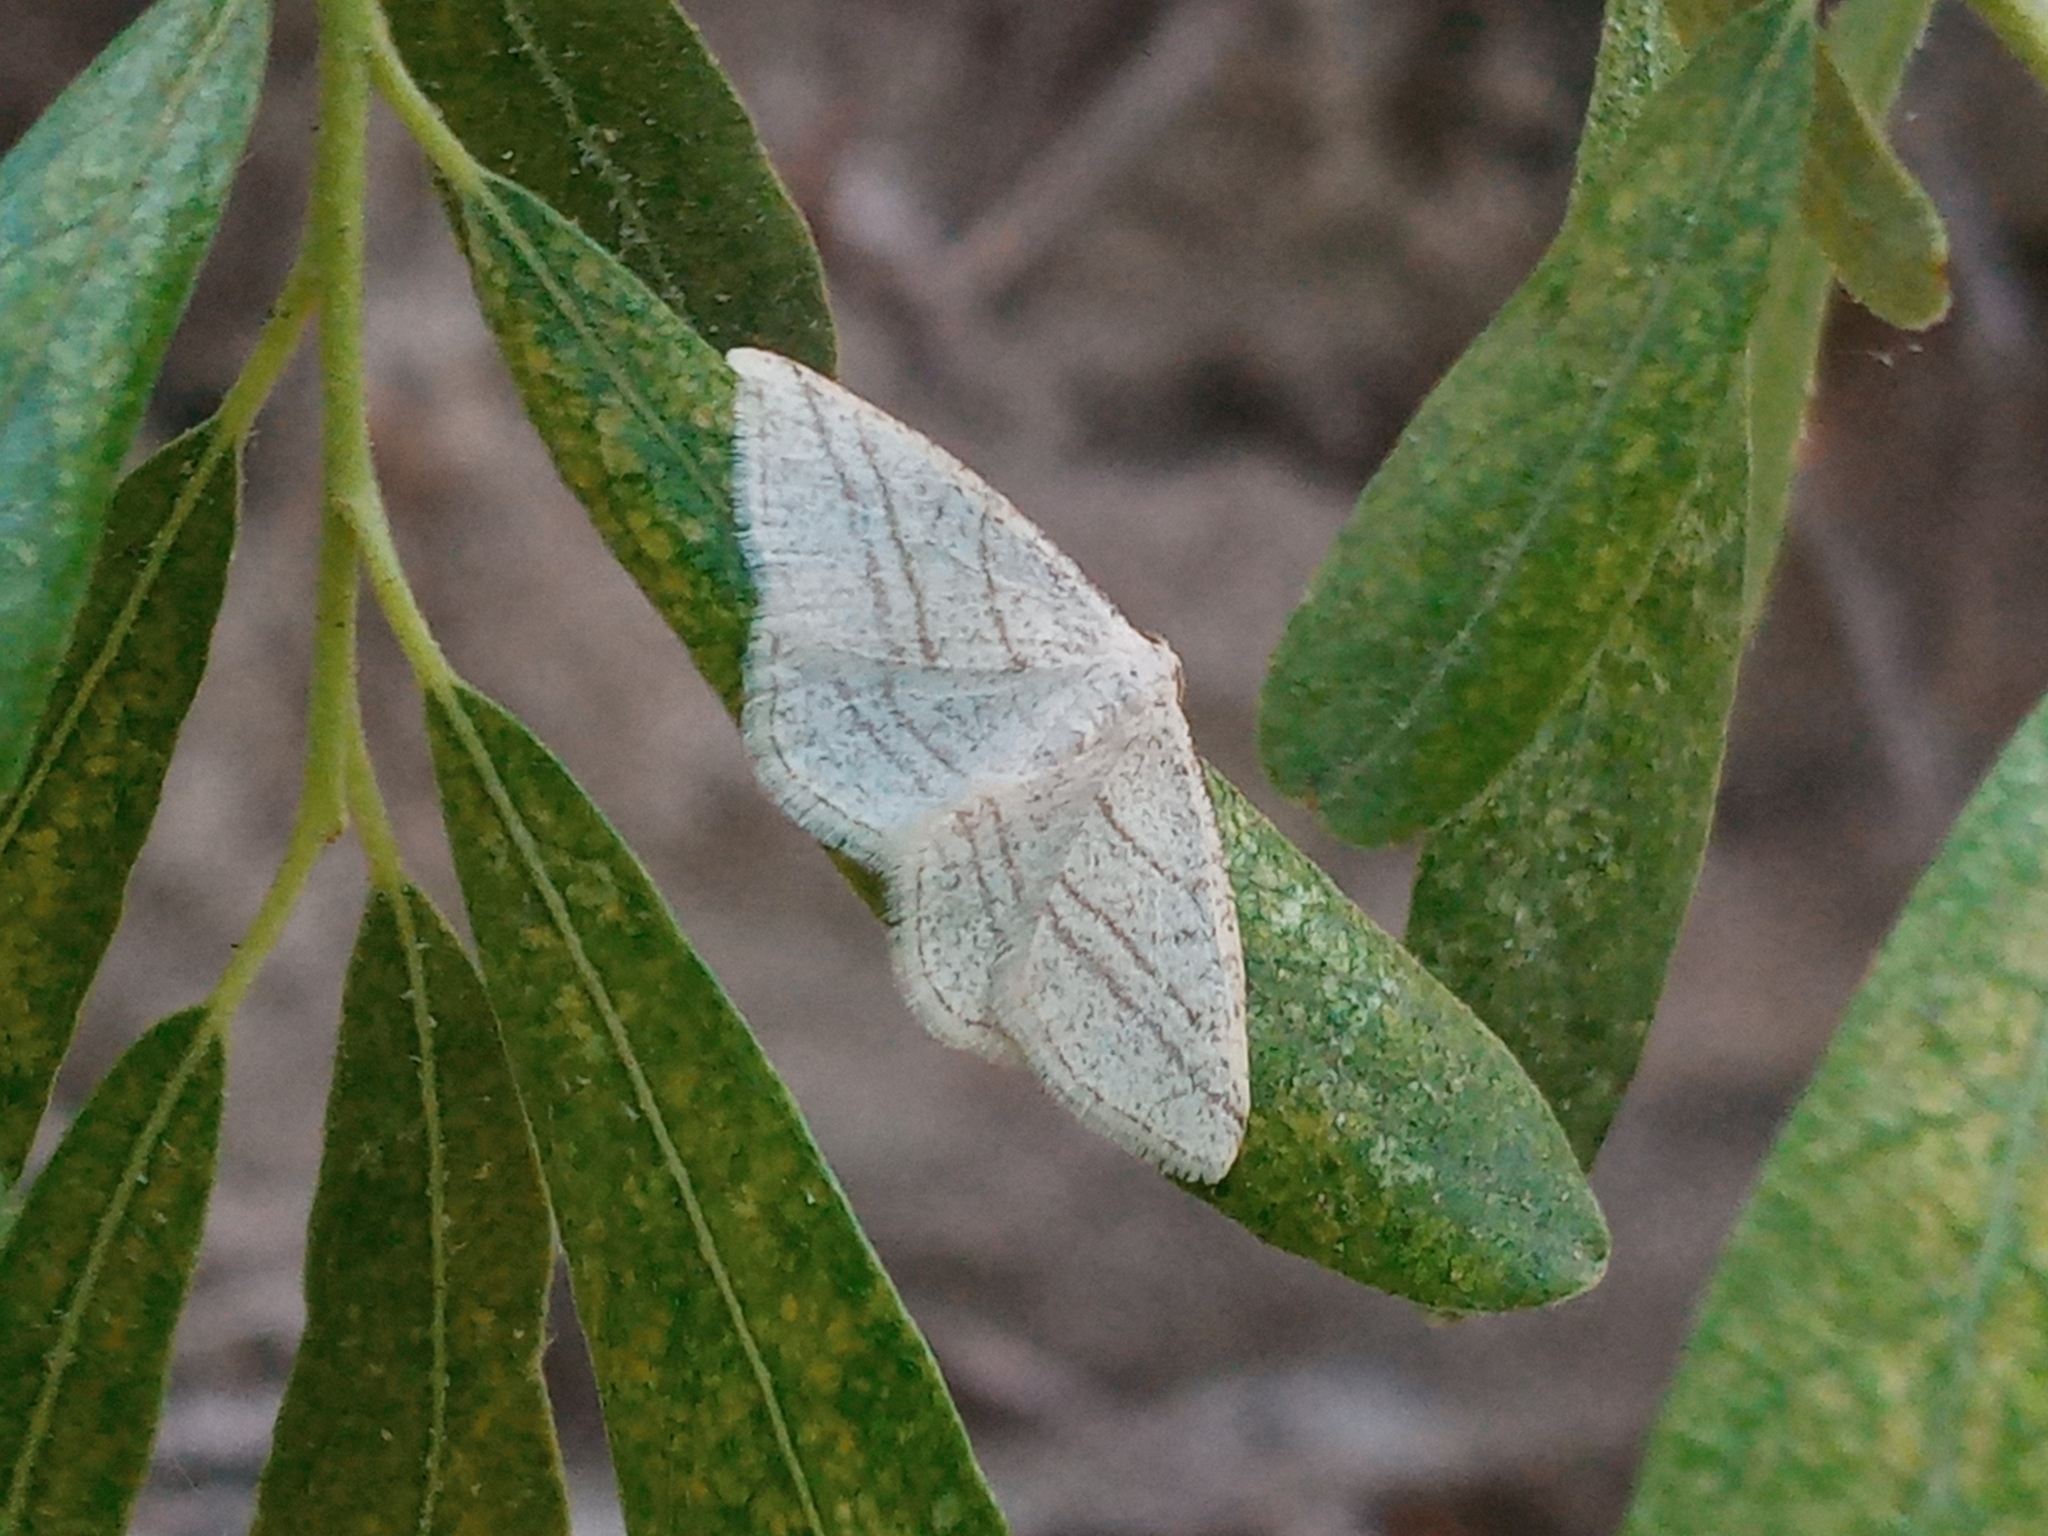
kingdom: Animalia
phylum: Arthropoda
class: Insecta
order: Lepidoptera
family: Geometridae
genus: Protitame
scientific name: Protitame subalbaria
